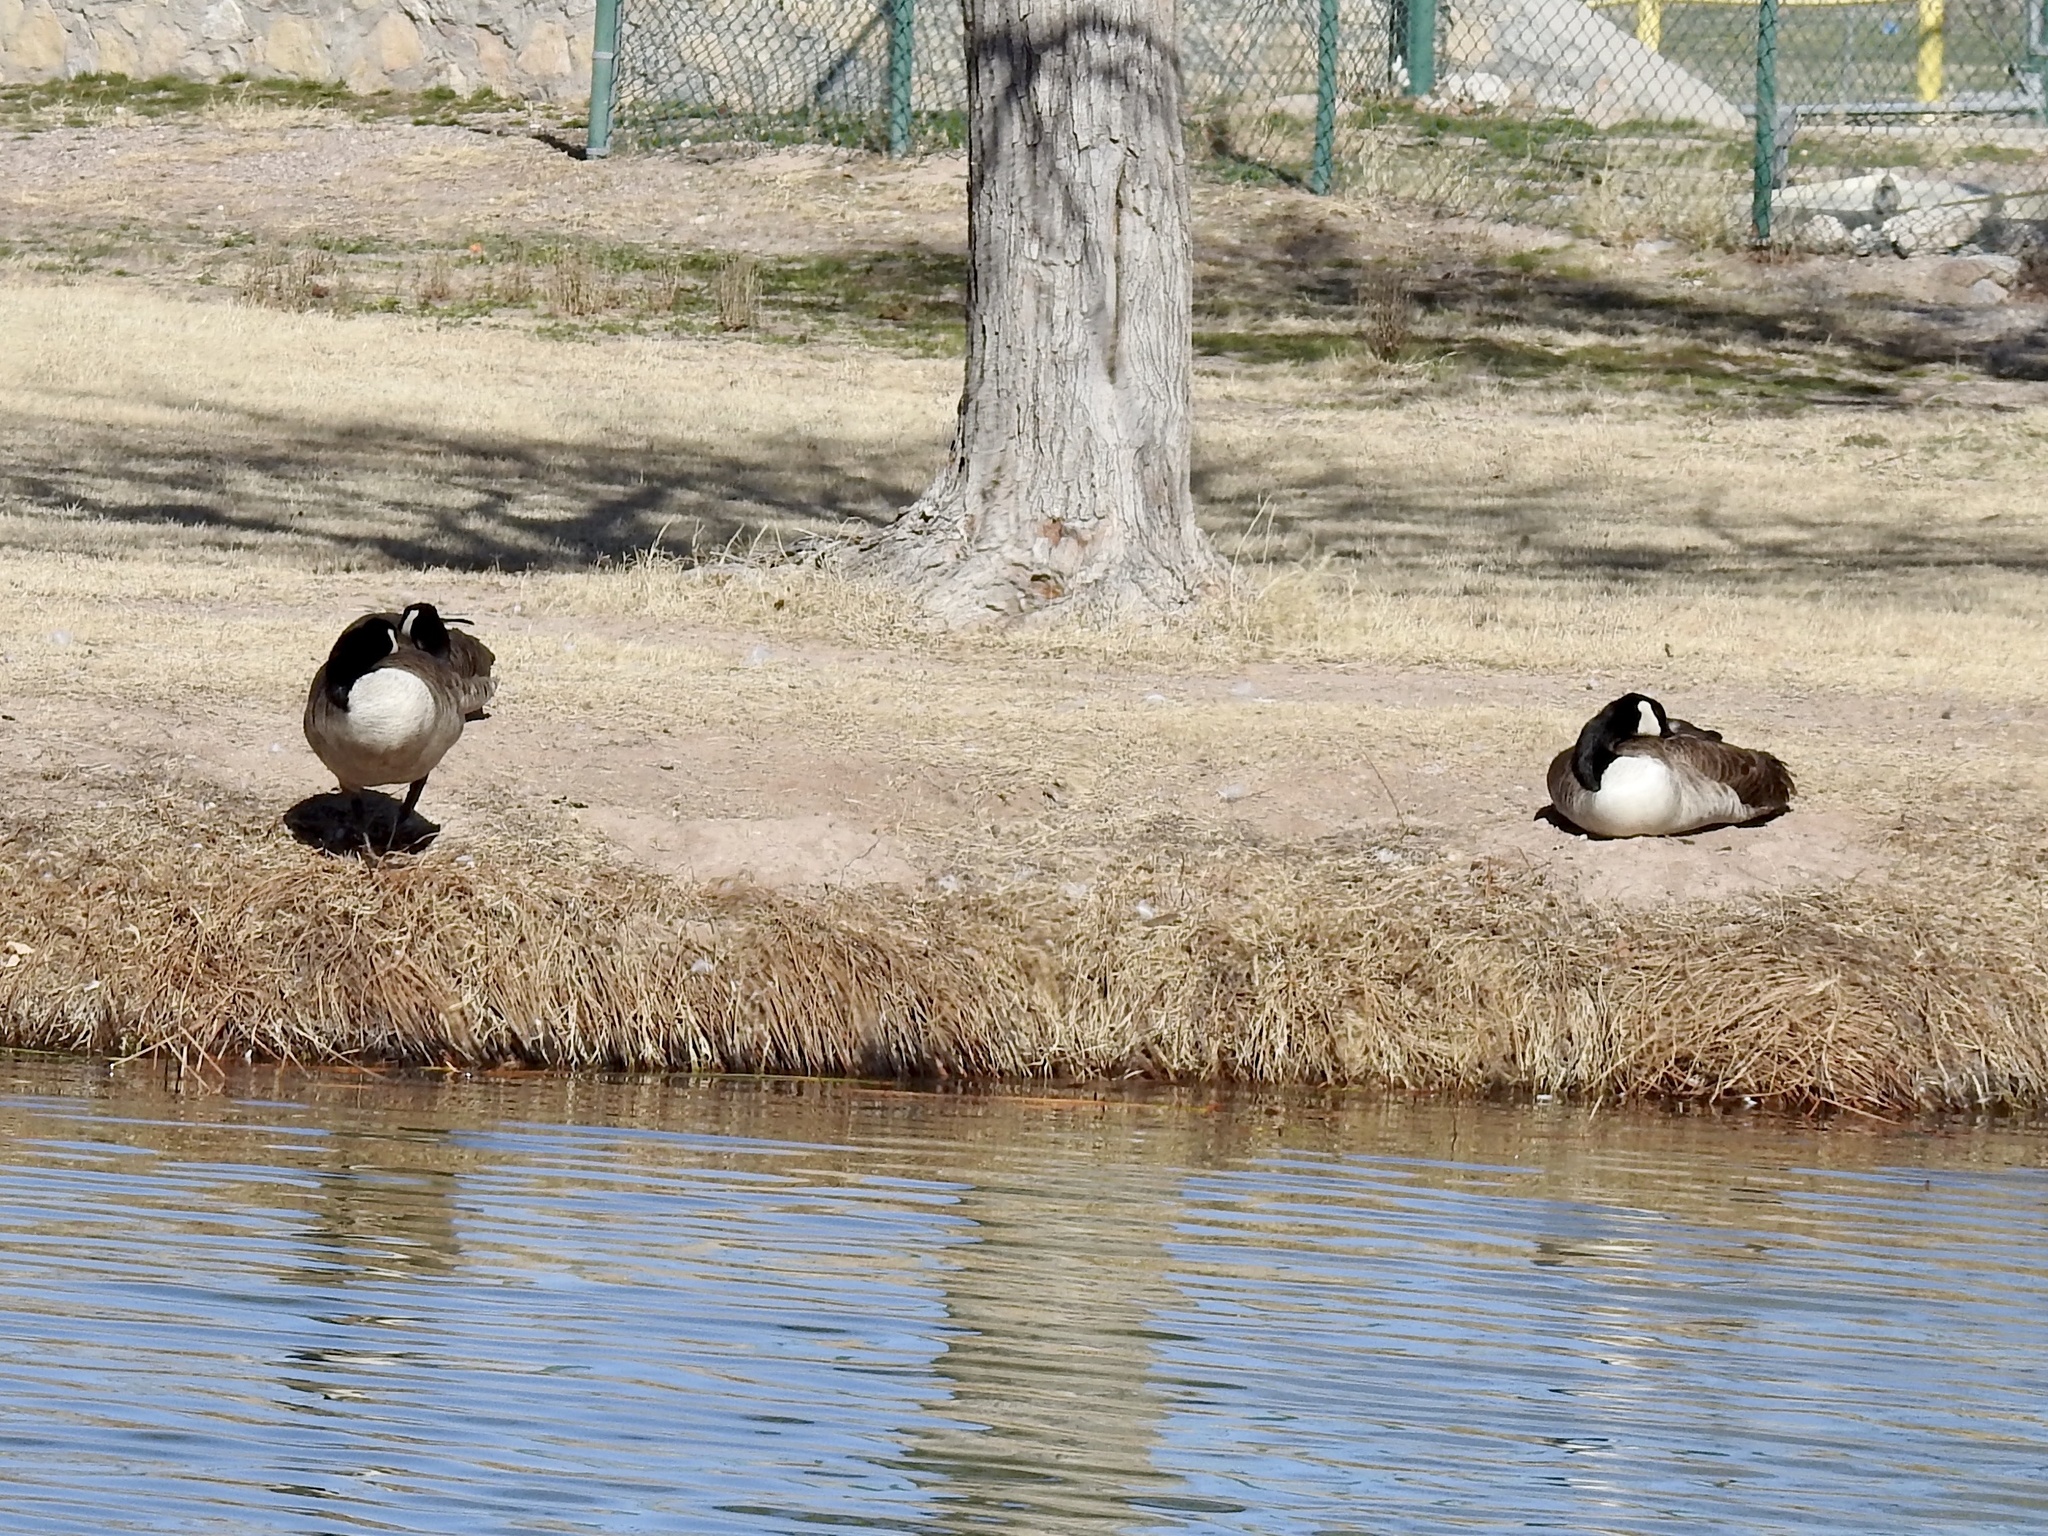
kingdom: Animalia
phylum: Chordata
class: Aves
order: Anseriformes
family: Anatidae
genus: Branta
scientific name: Branta canadensis
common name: Canada goose
